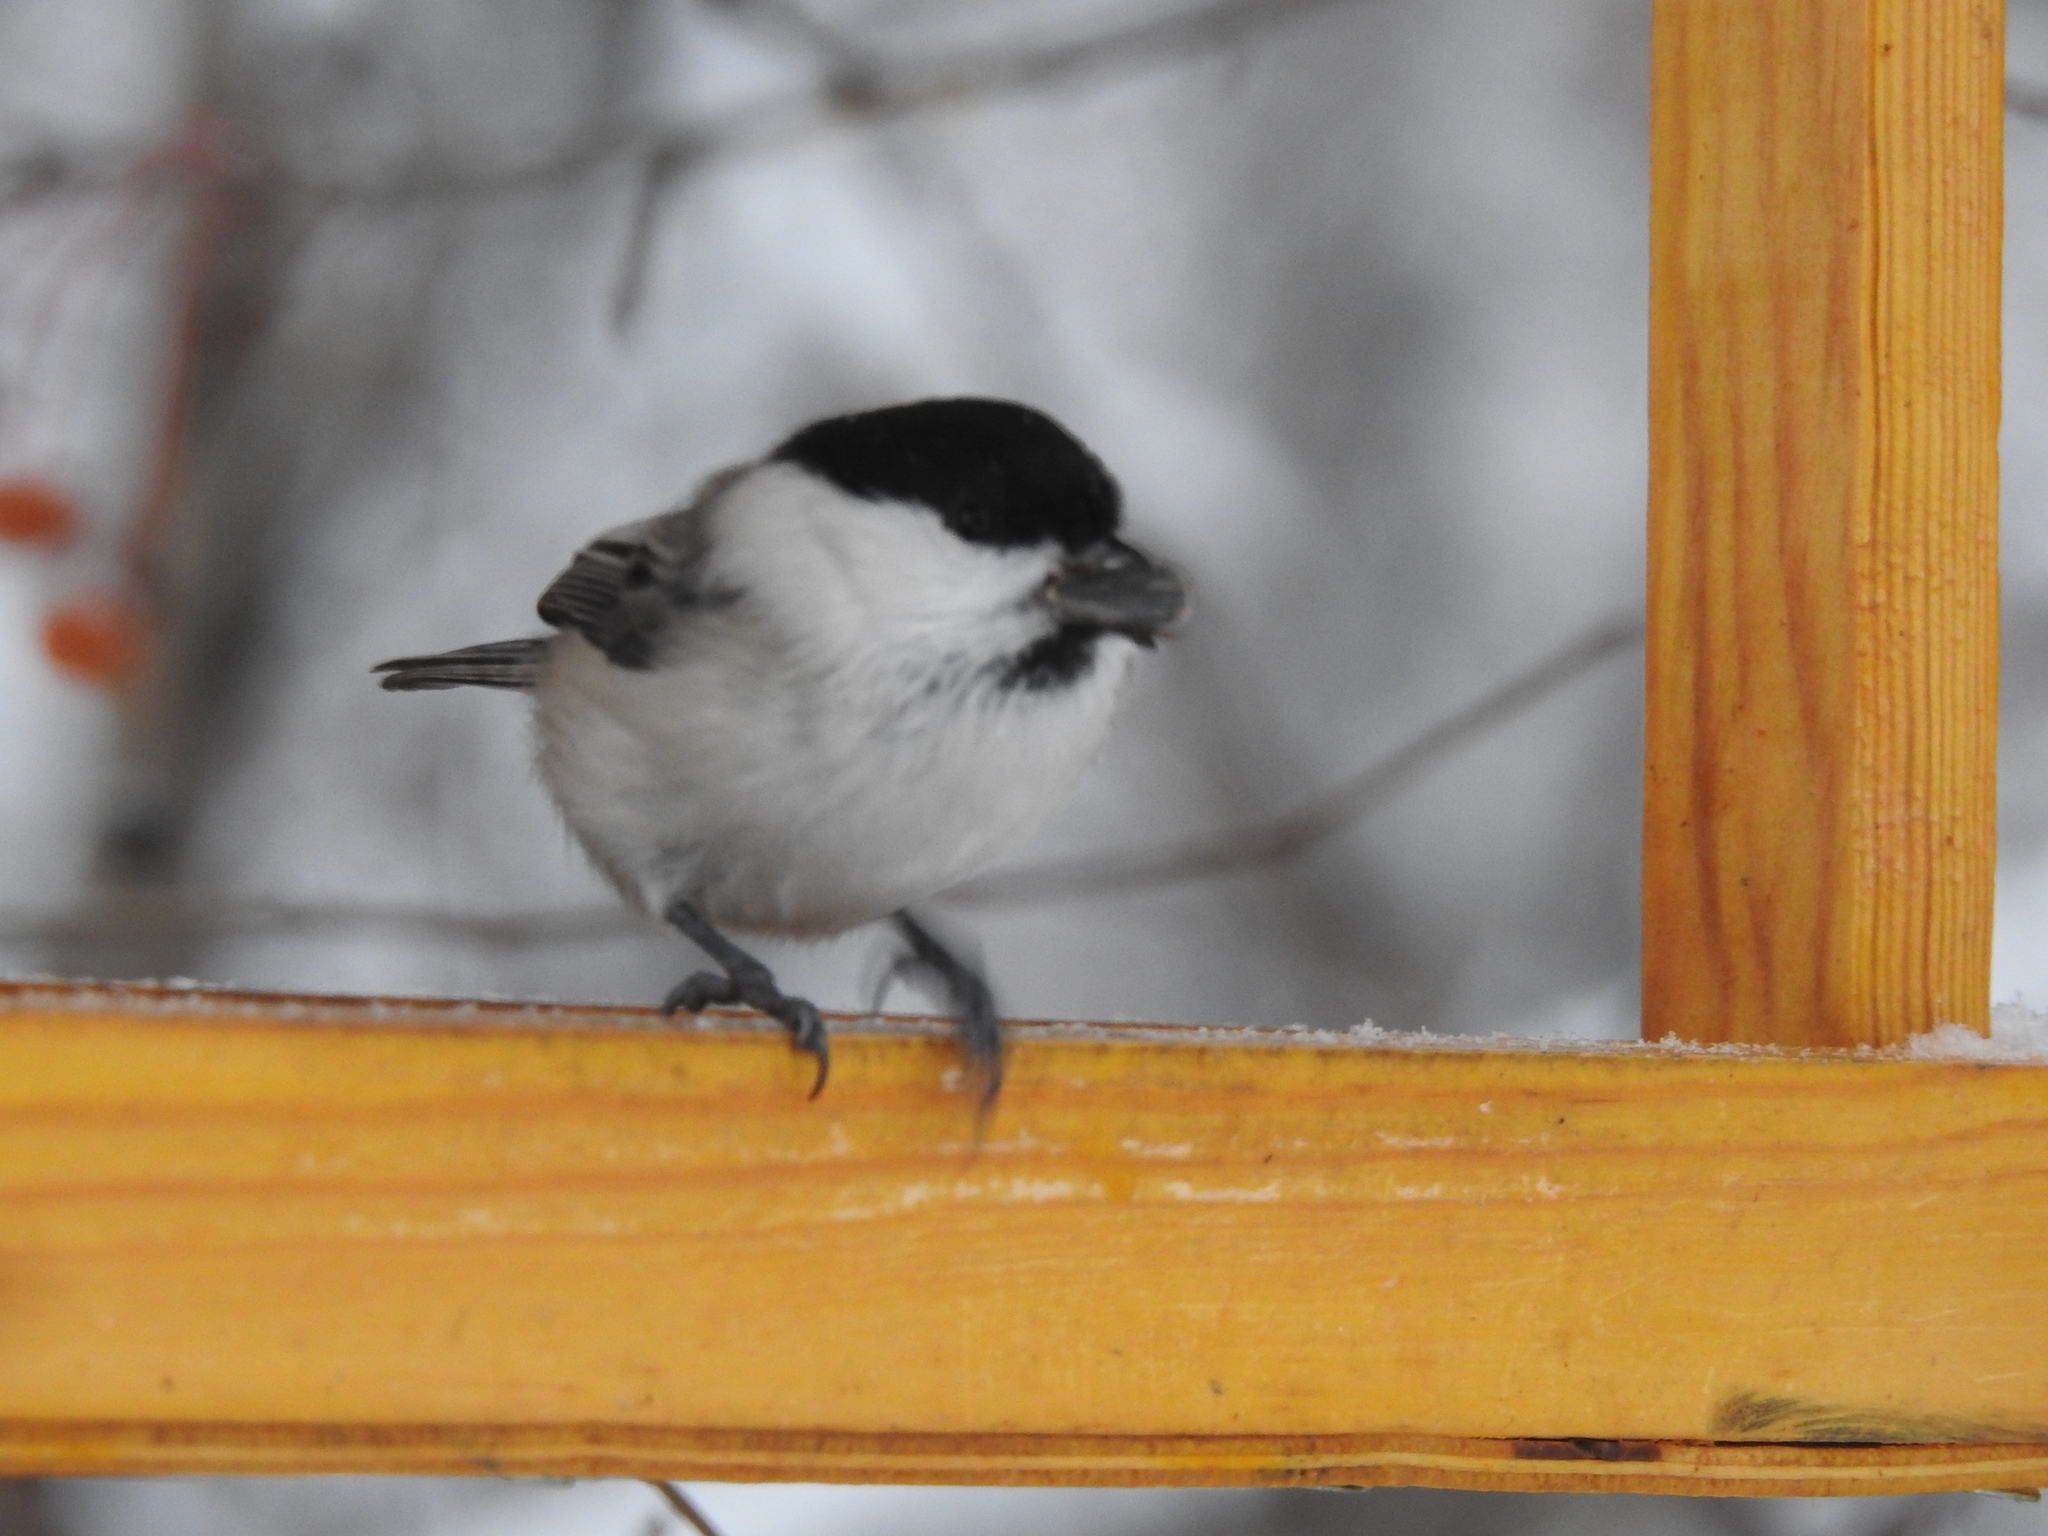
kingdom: Animalia
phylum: Chordata
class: Aves
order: Passeriformes
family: Paridae
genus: Poecile
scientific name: Poecile montanus
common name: Willow tit
